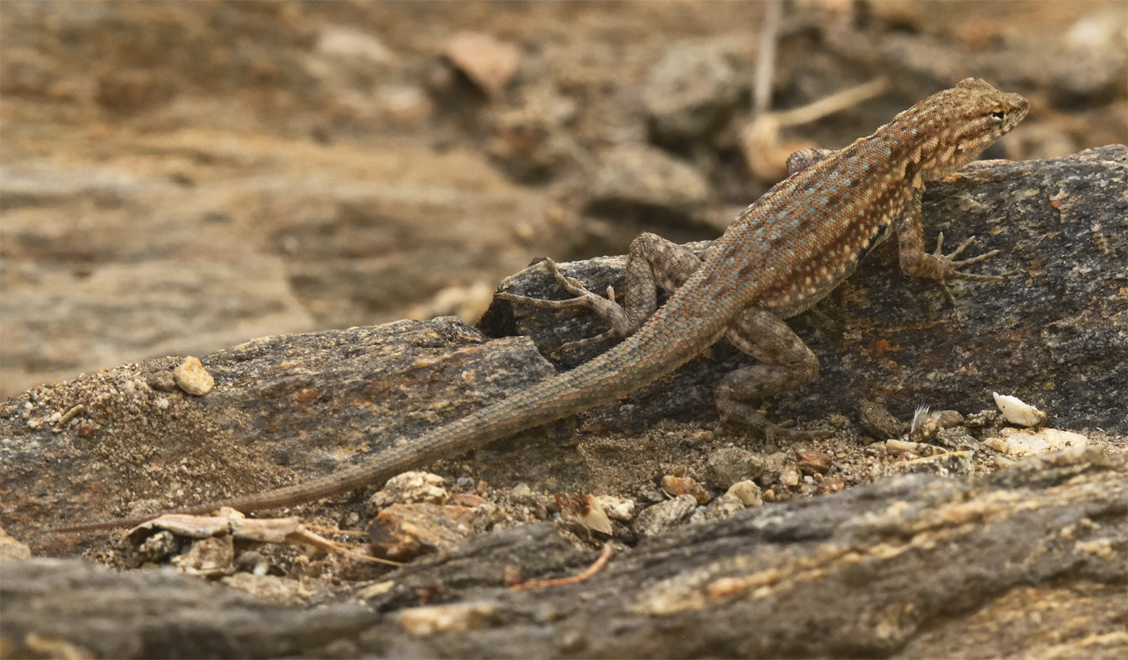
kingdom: Animalia
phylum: Chordata
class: Squamata
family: Phrynosomatidae
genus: Uta
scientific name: Uta stansburiana
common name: Side-blotched lizard
